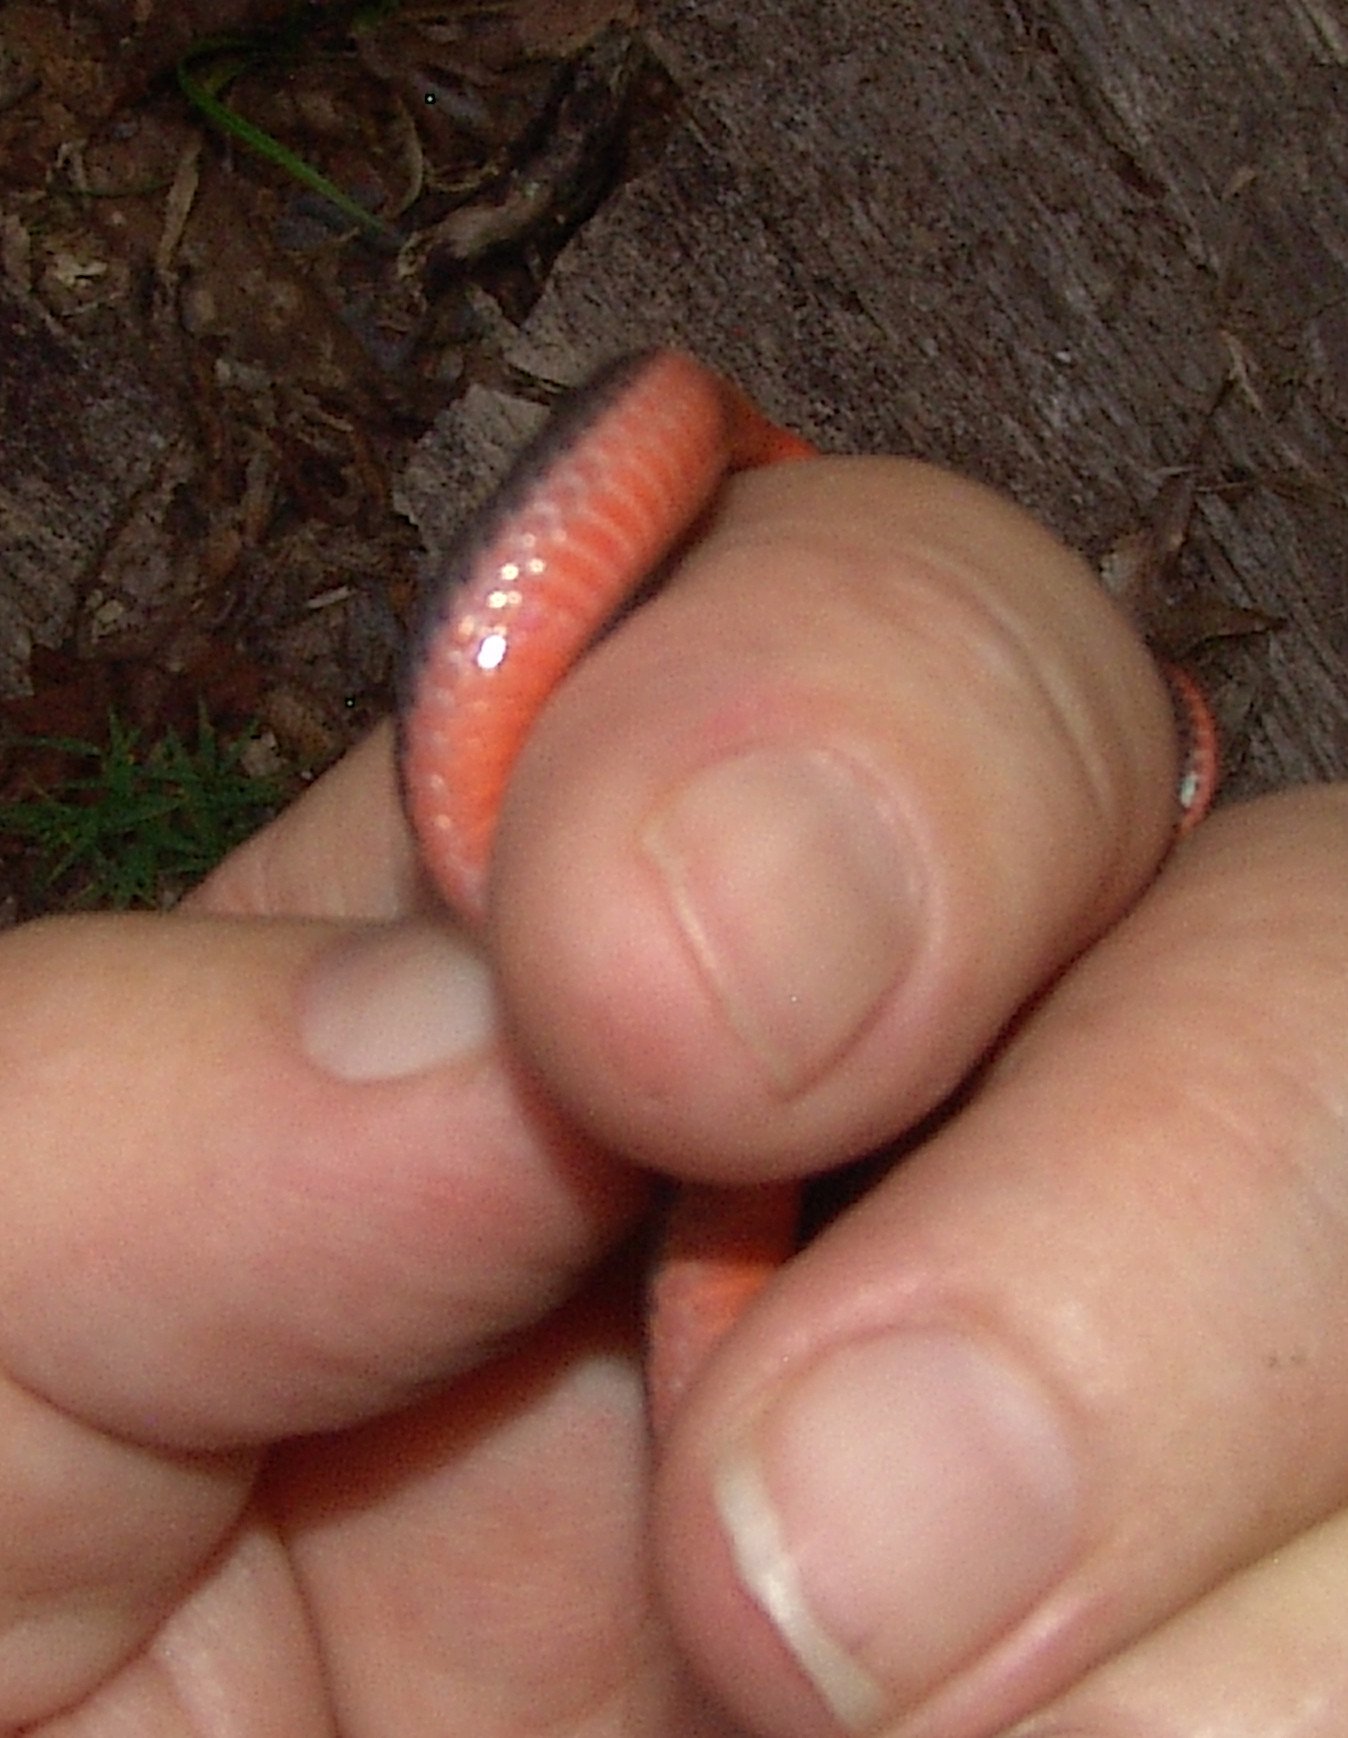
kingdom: Animalia
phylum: Chordata
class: Squamata
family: Colubridae
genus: Carphophis
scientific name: Carphophis amoenus
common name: Eastern worm snake
